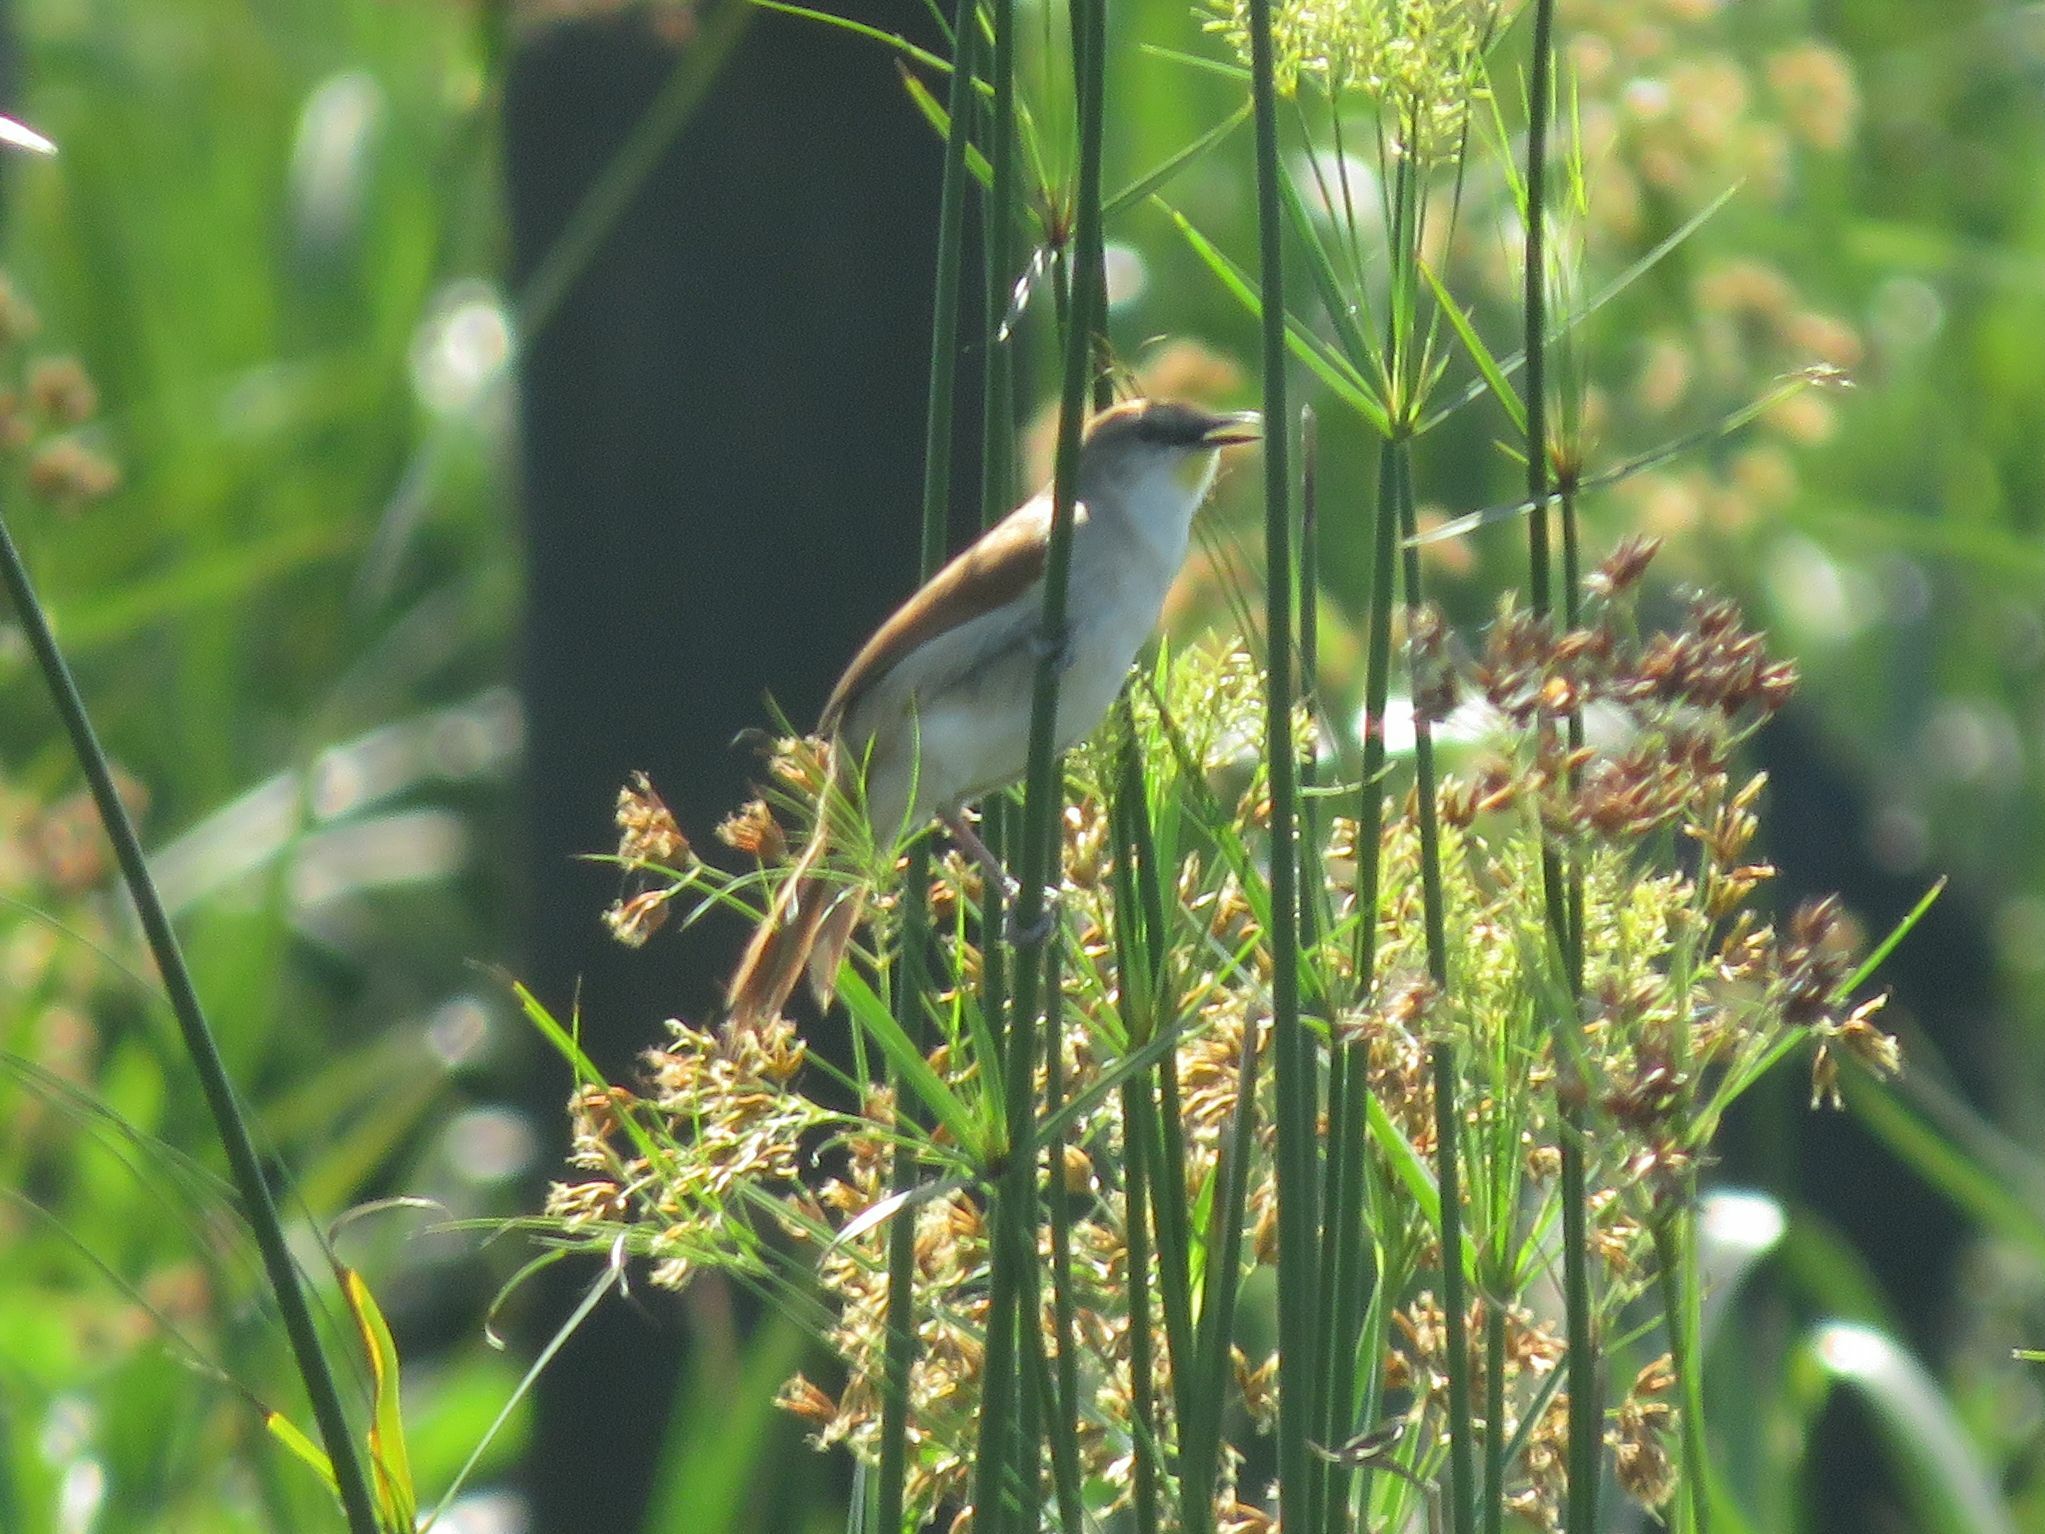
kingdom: Animalia
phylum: Chordata
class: Aves
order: Passeriformes
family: Furnariidae
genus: Certhiaxis
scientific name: Certhiaxis cinnamomeus
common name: Yellow-chinned spinetail
